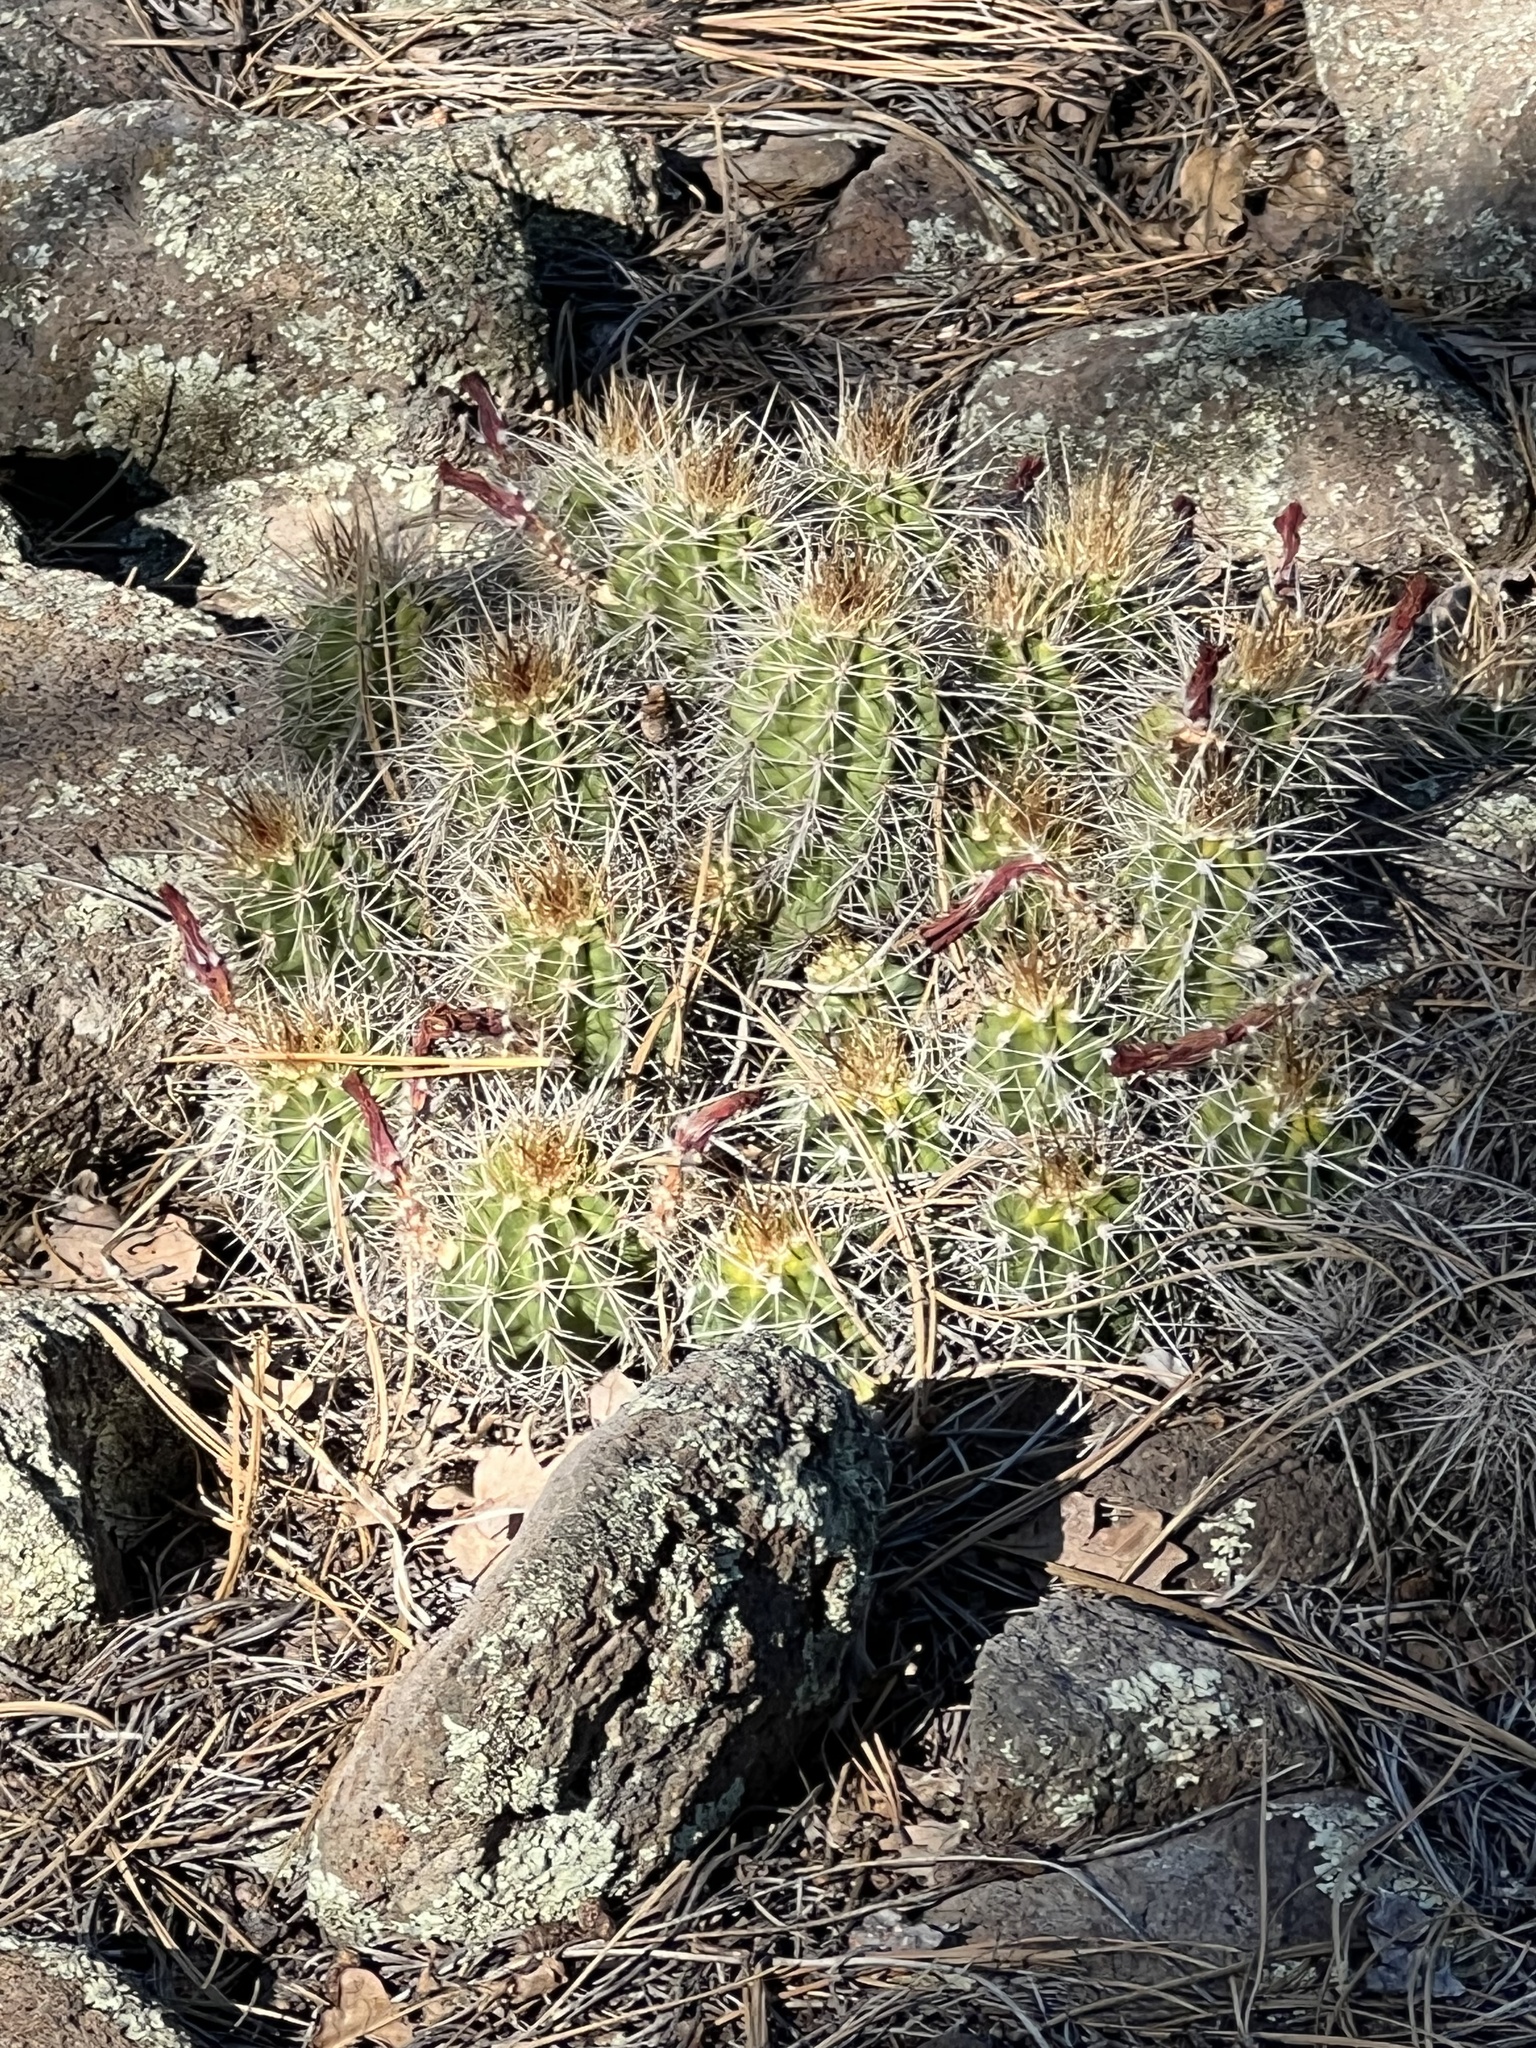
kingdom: Plantae
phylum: Tracheophyta
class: Magnoliopsida
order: Caryophyllales
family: Cactaceae
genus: Echinocereus
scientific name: Echinocereus bakeri
